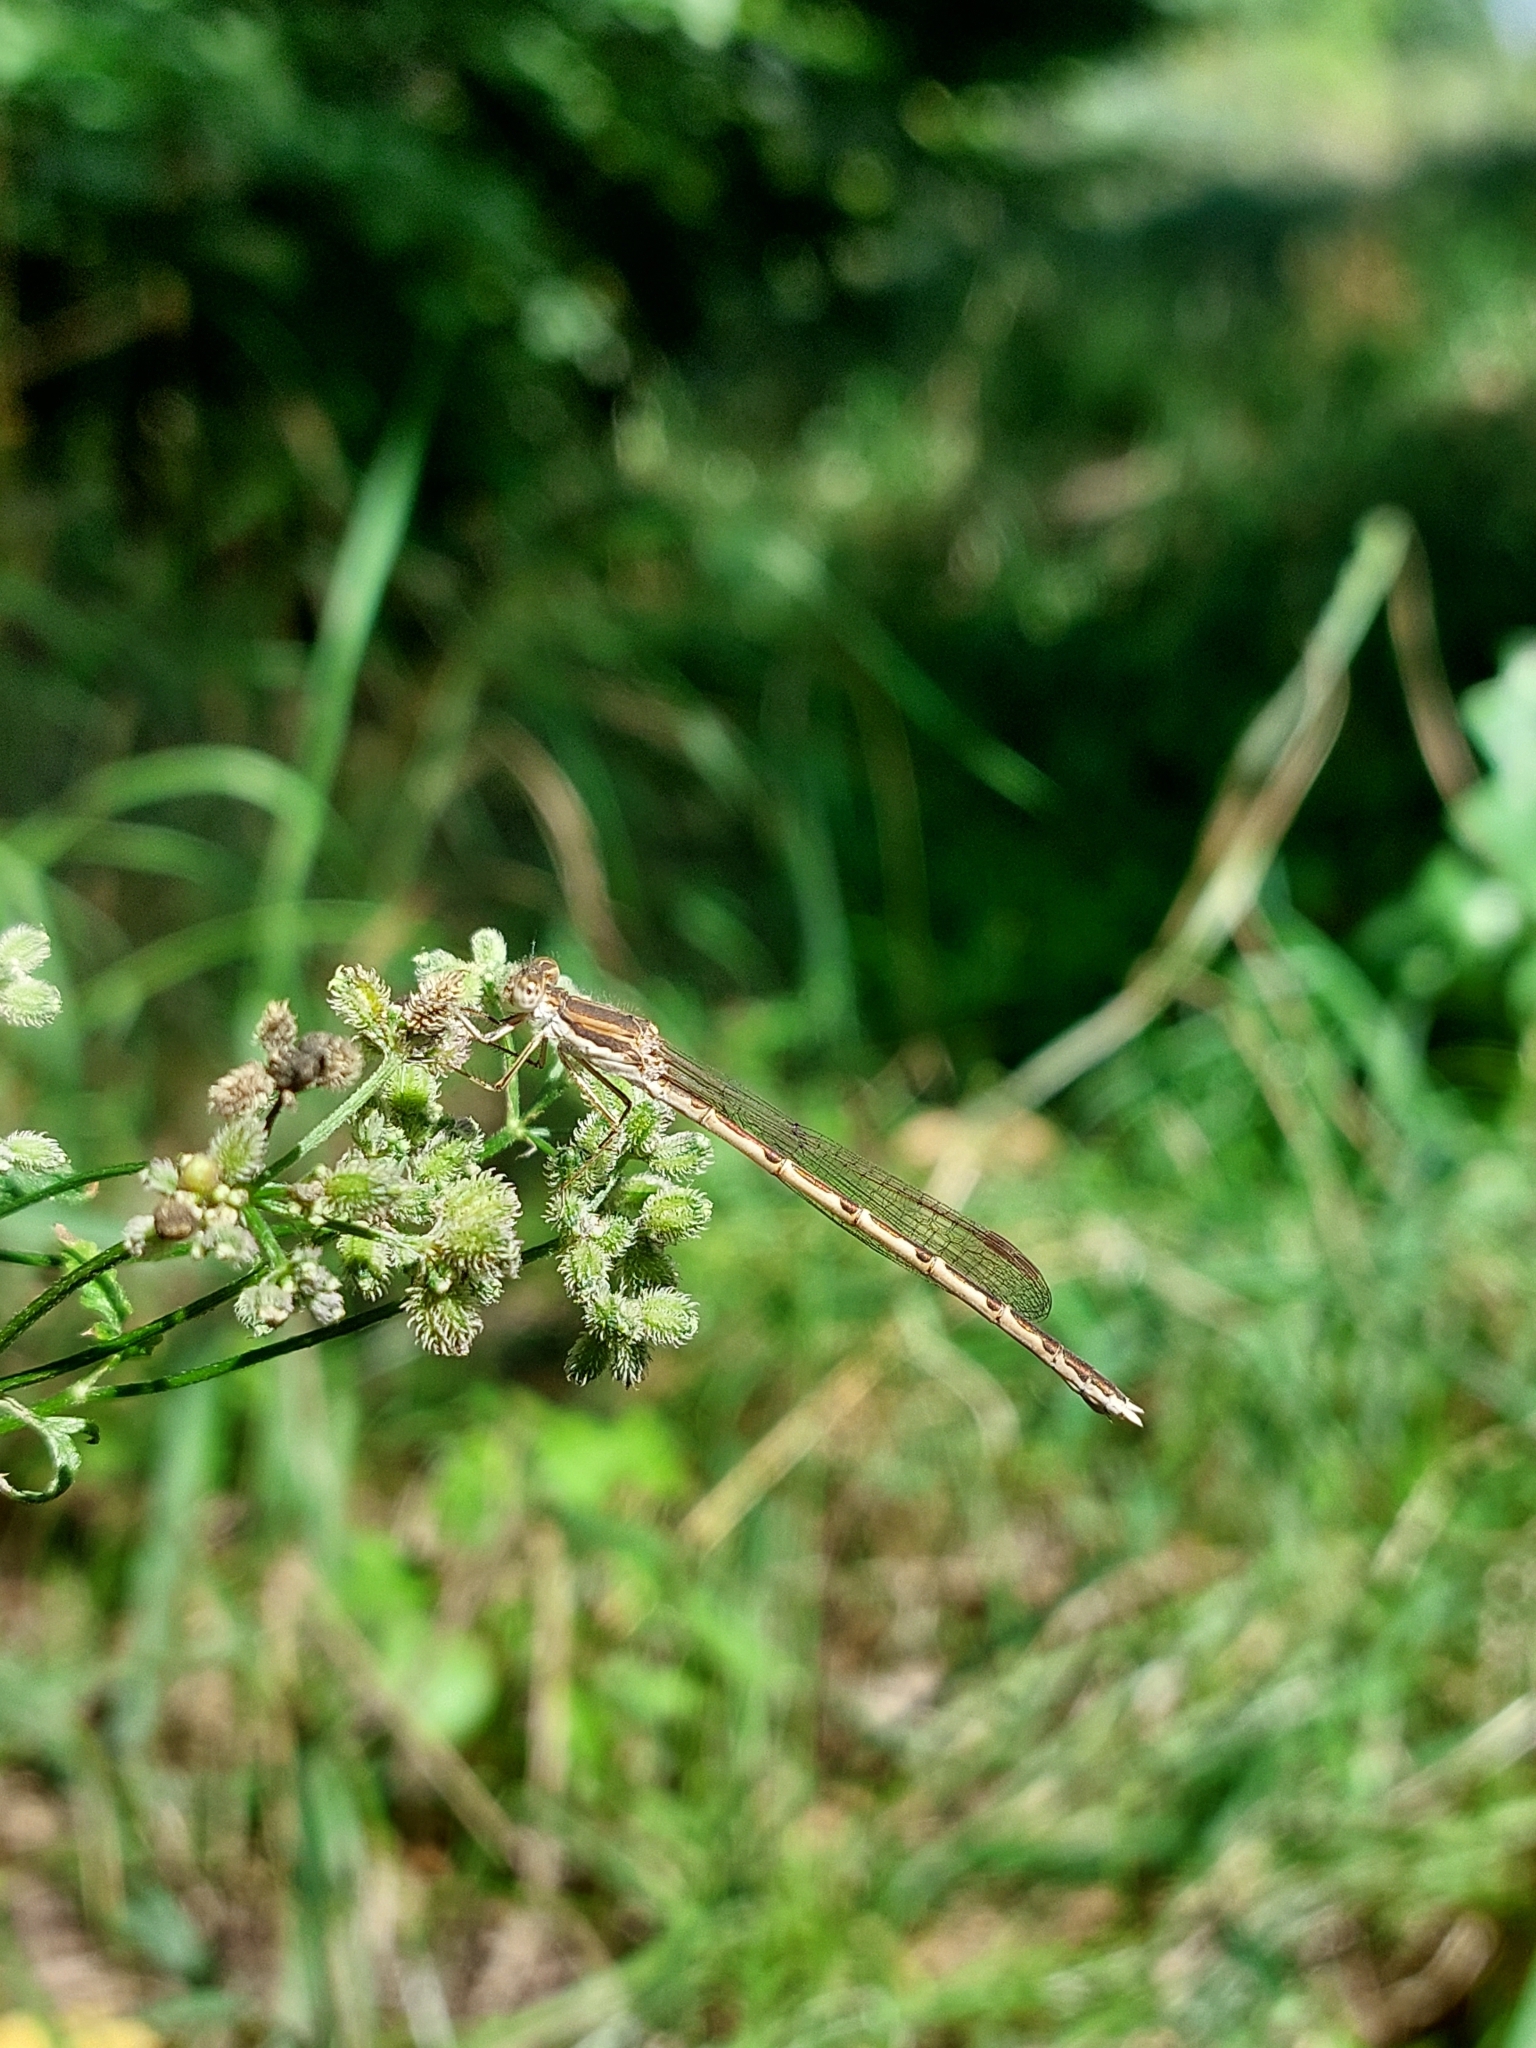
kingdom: Animalia
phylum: Arthropoda
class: Insecta
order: Odonata
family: Lestidae
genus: Sympecma
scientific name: Sympecma fusca
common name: Common winter damsel
